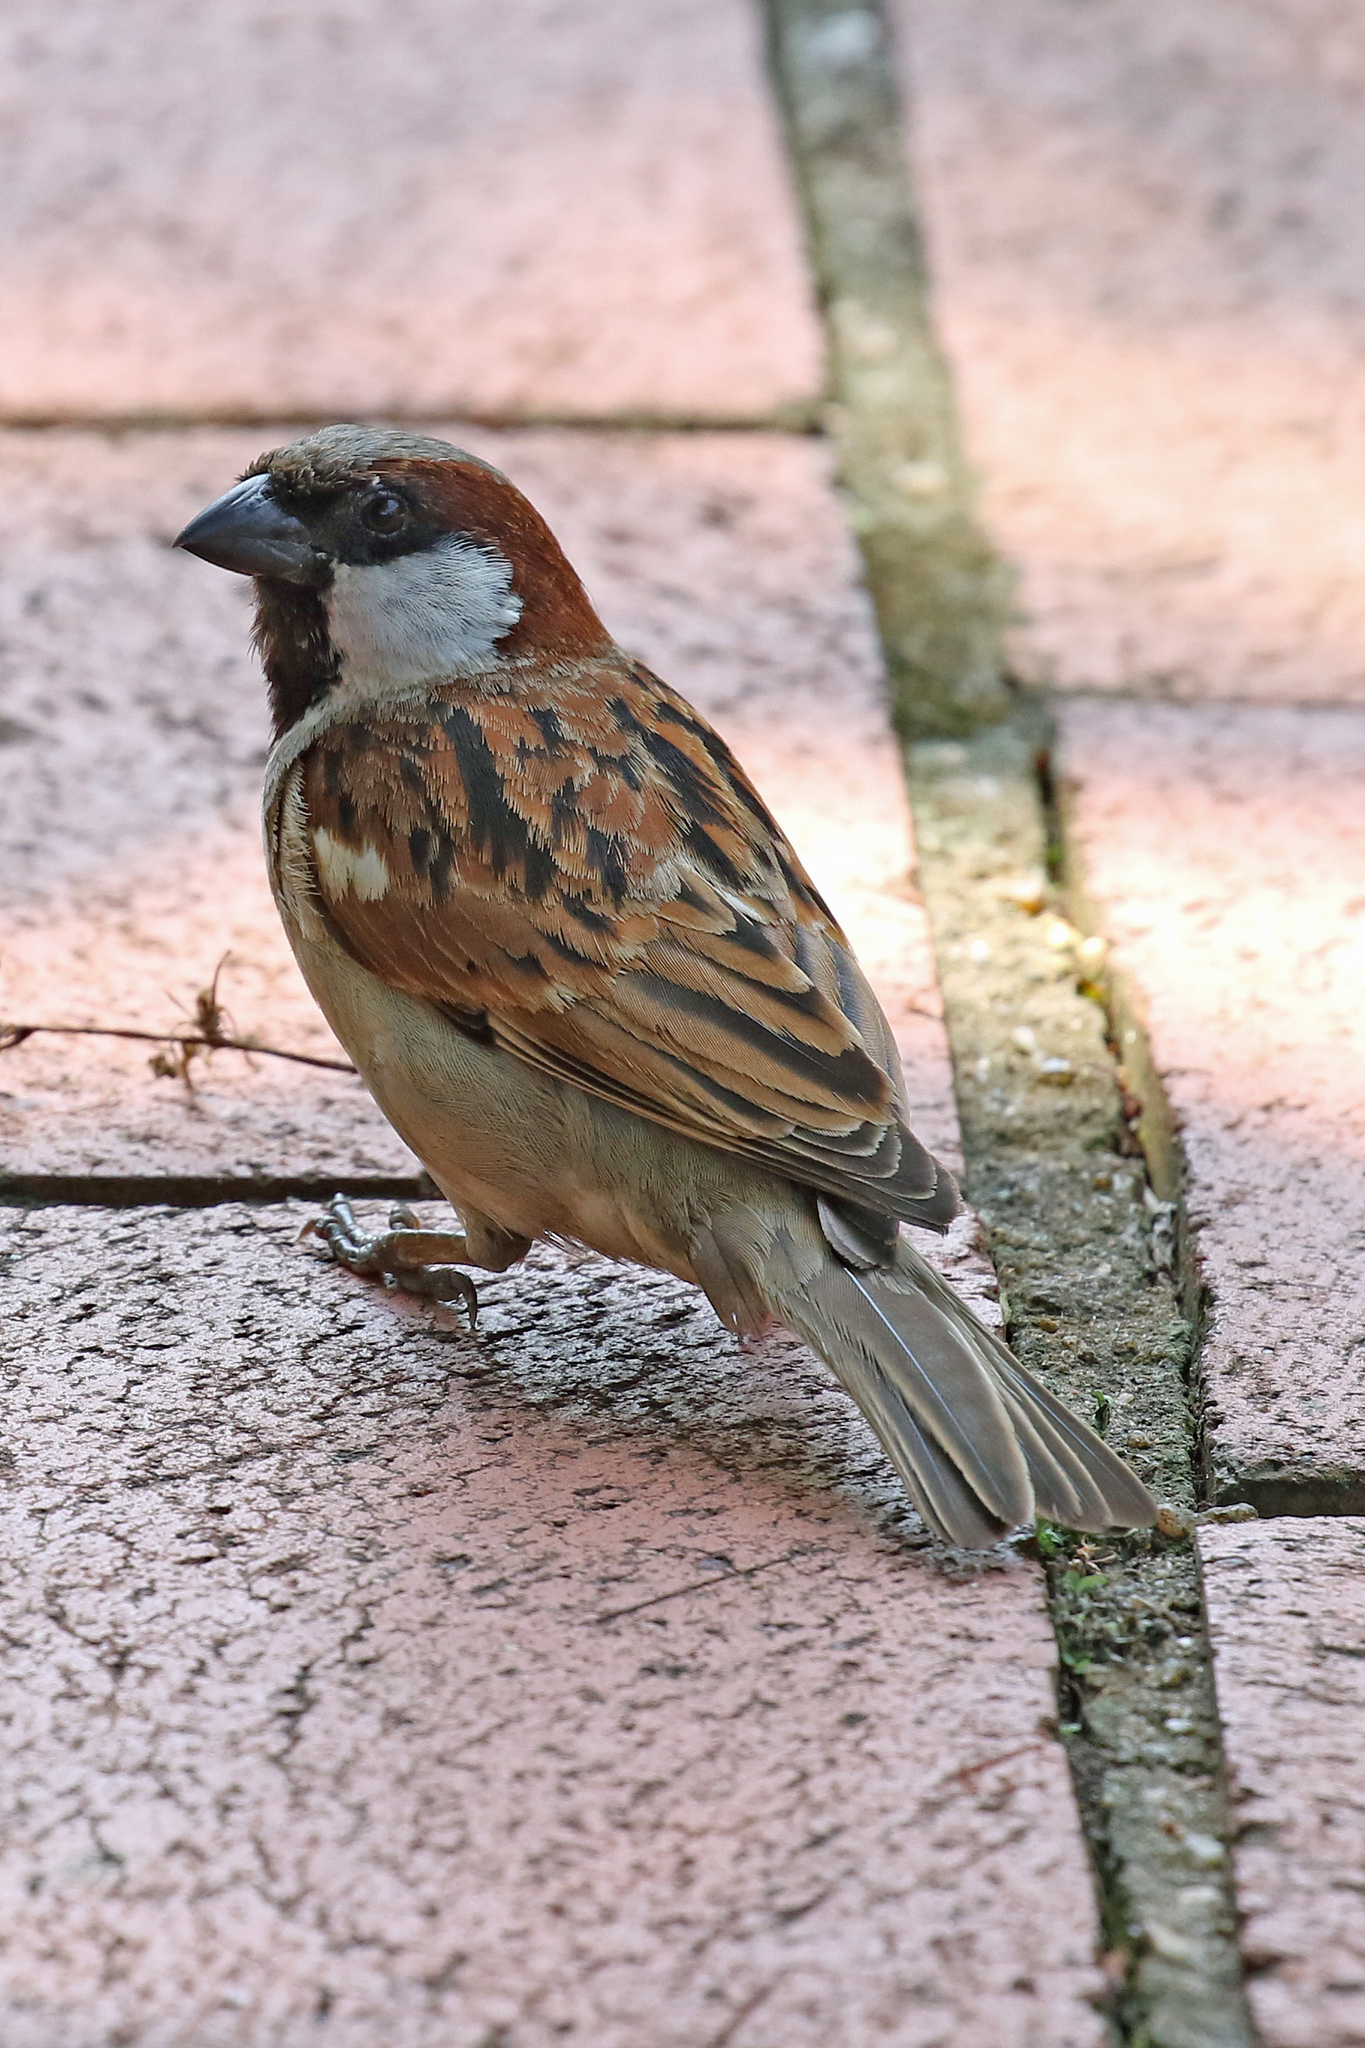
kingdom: Animalia
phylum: Chordata
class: Aves
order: Passeriformes
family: Passeridae
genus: Passer
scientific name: Passer domesticus
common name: House sparrow
